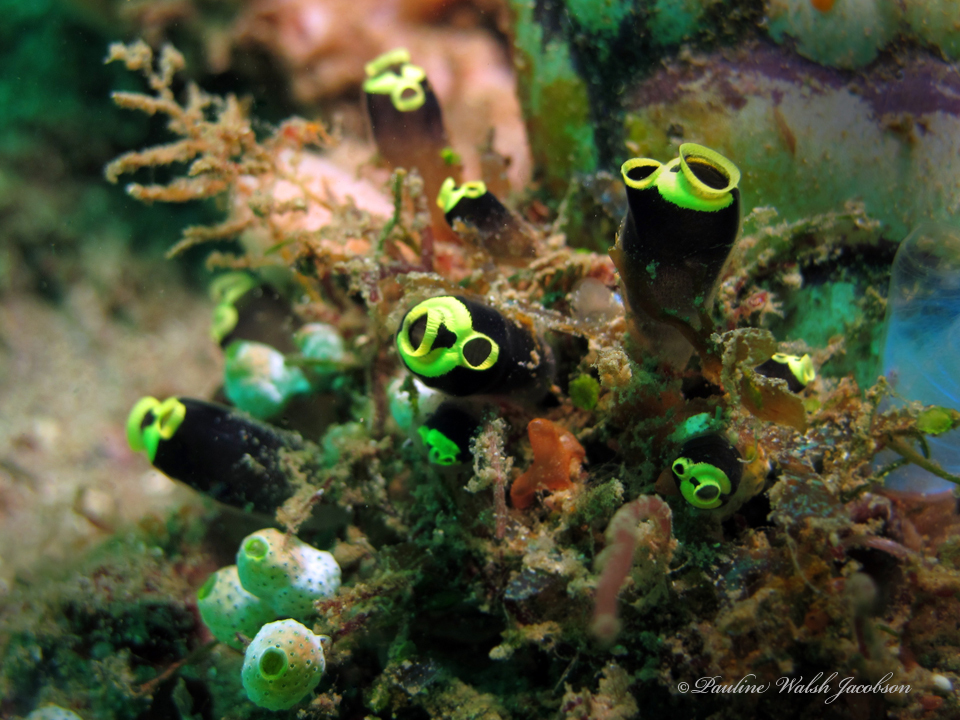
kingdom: Animalia
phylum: Chordata
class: Ascidiacea
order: Aplousobranchia
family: Clavelinidae
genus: Clavelina
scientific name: Clavelina robusta
